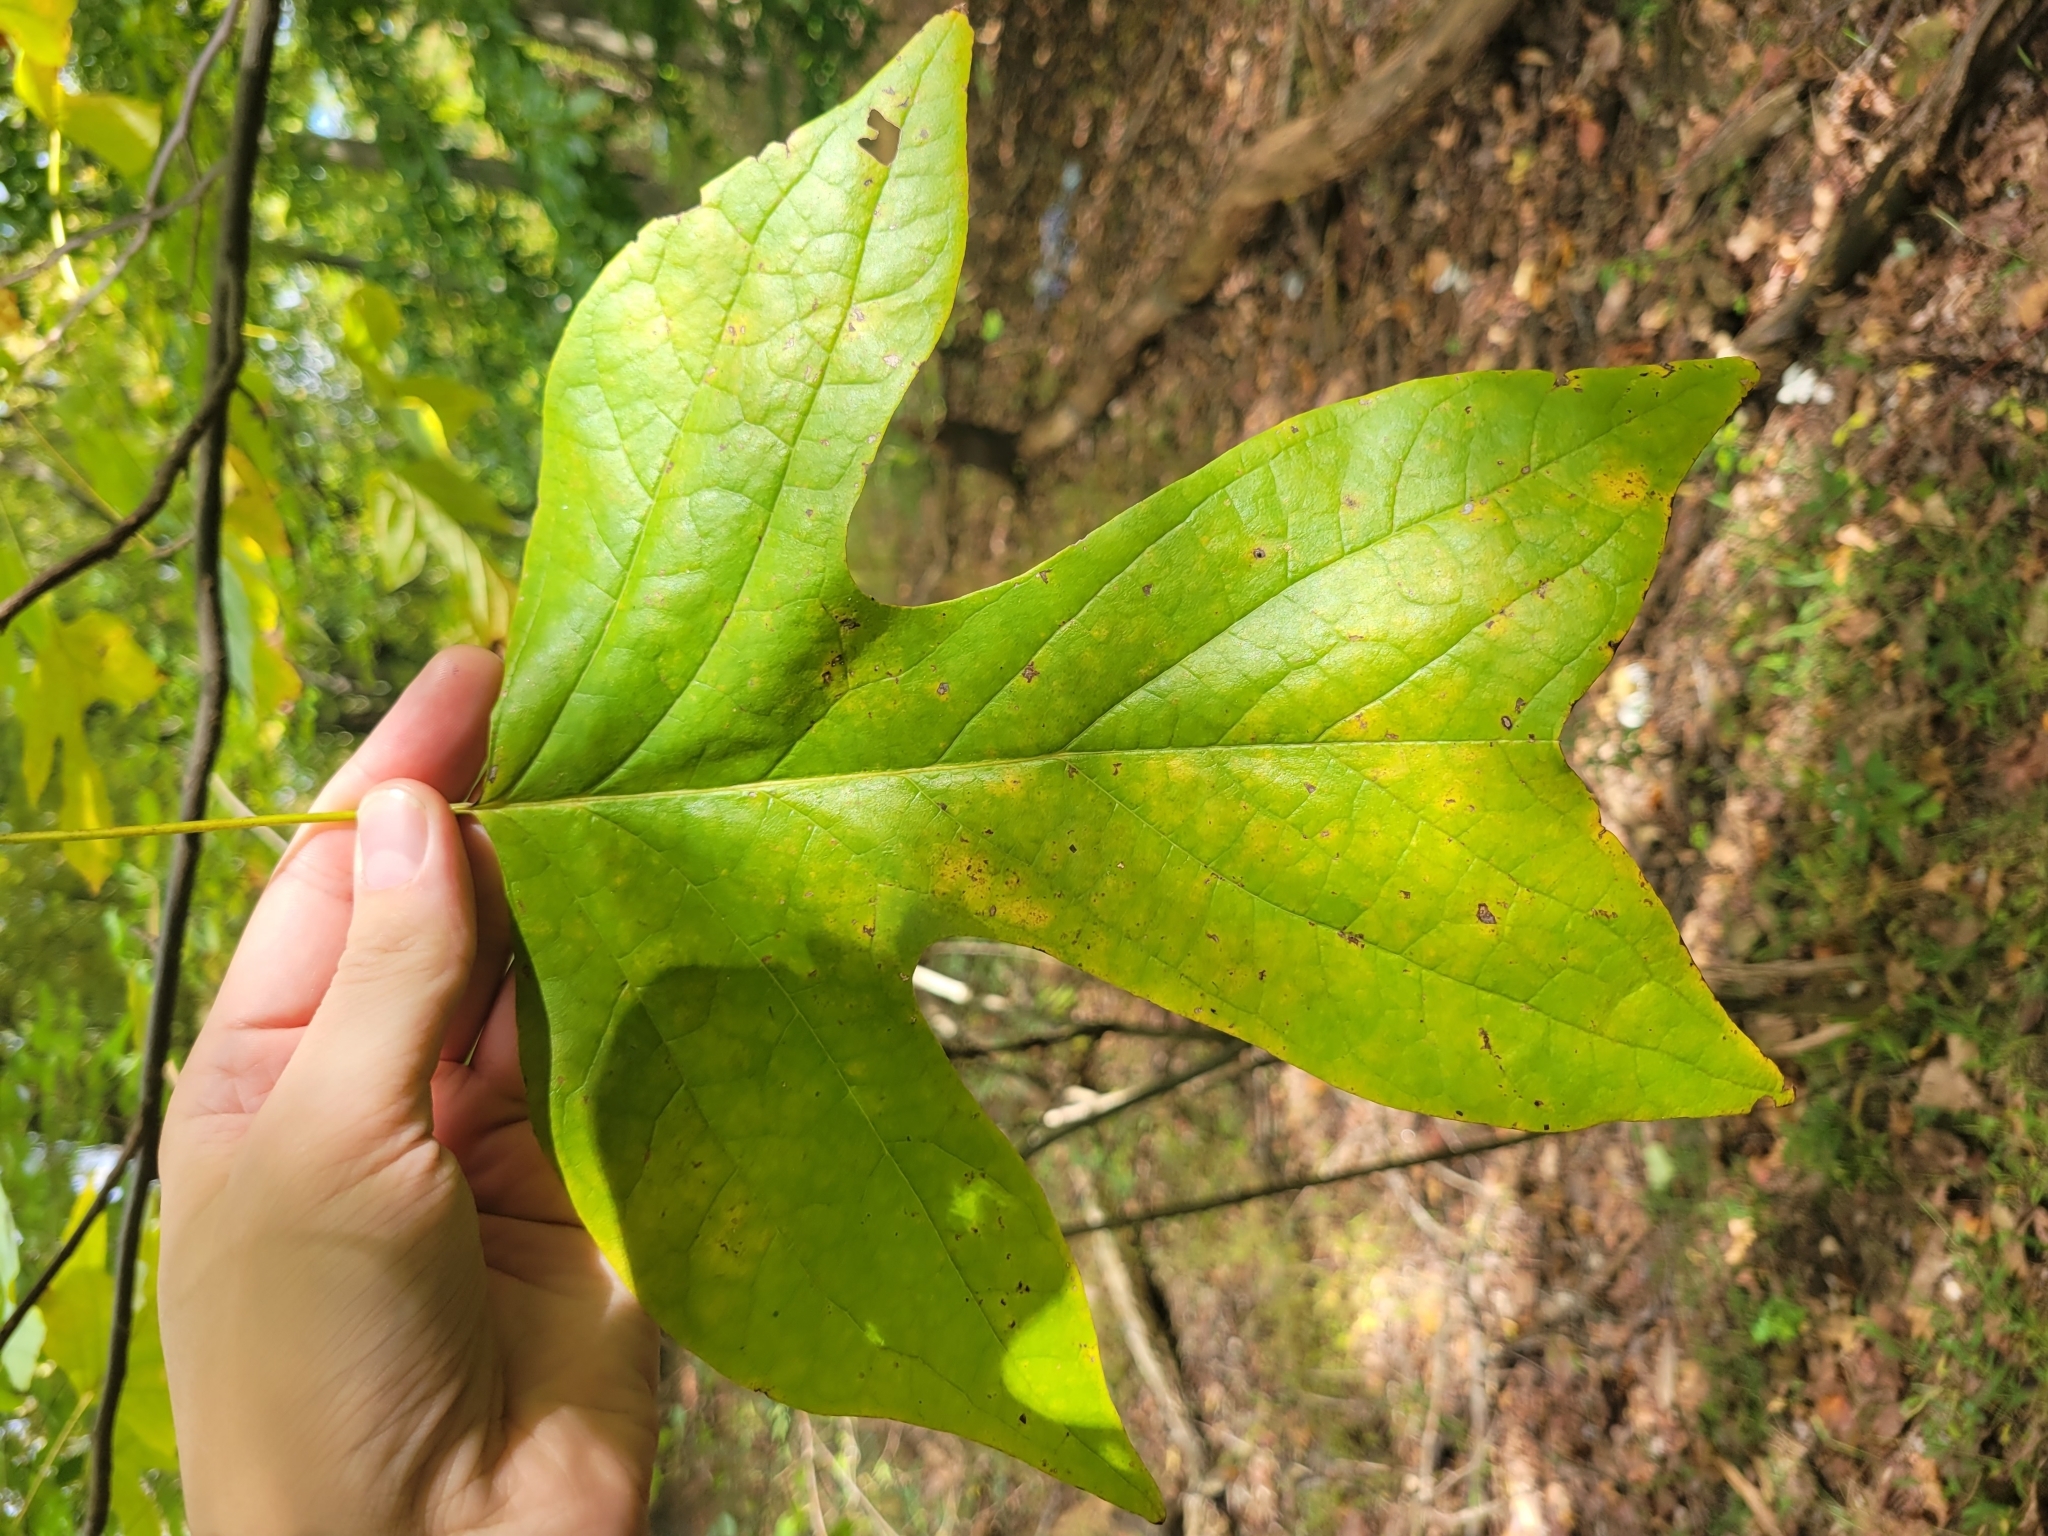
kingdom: Plantae
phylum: Tracheophyta
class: Magnoliopsida
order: Magnoliales
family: Magnoliaceae
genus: Liriodendron
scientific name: Liriodendron tulipifera
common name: Tulip tree
